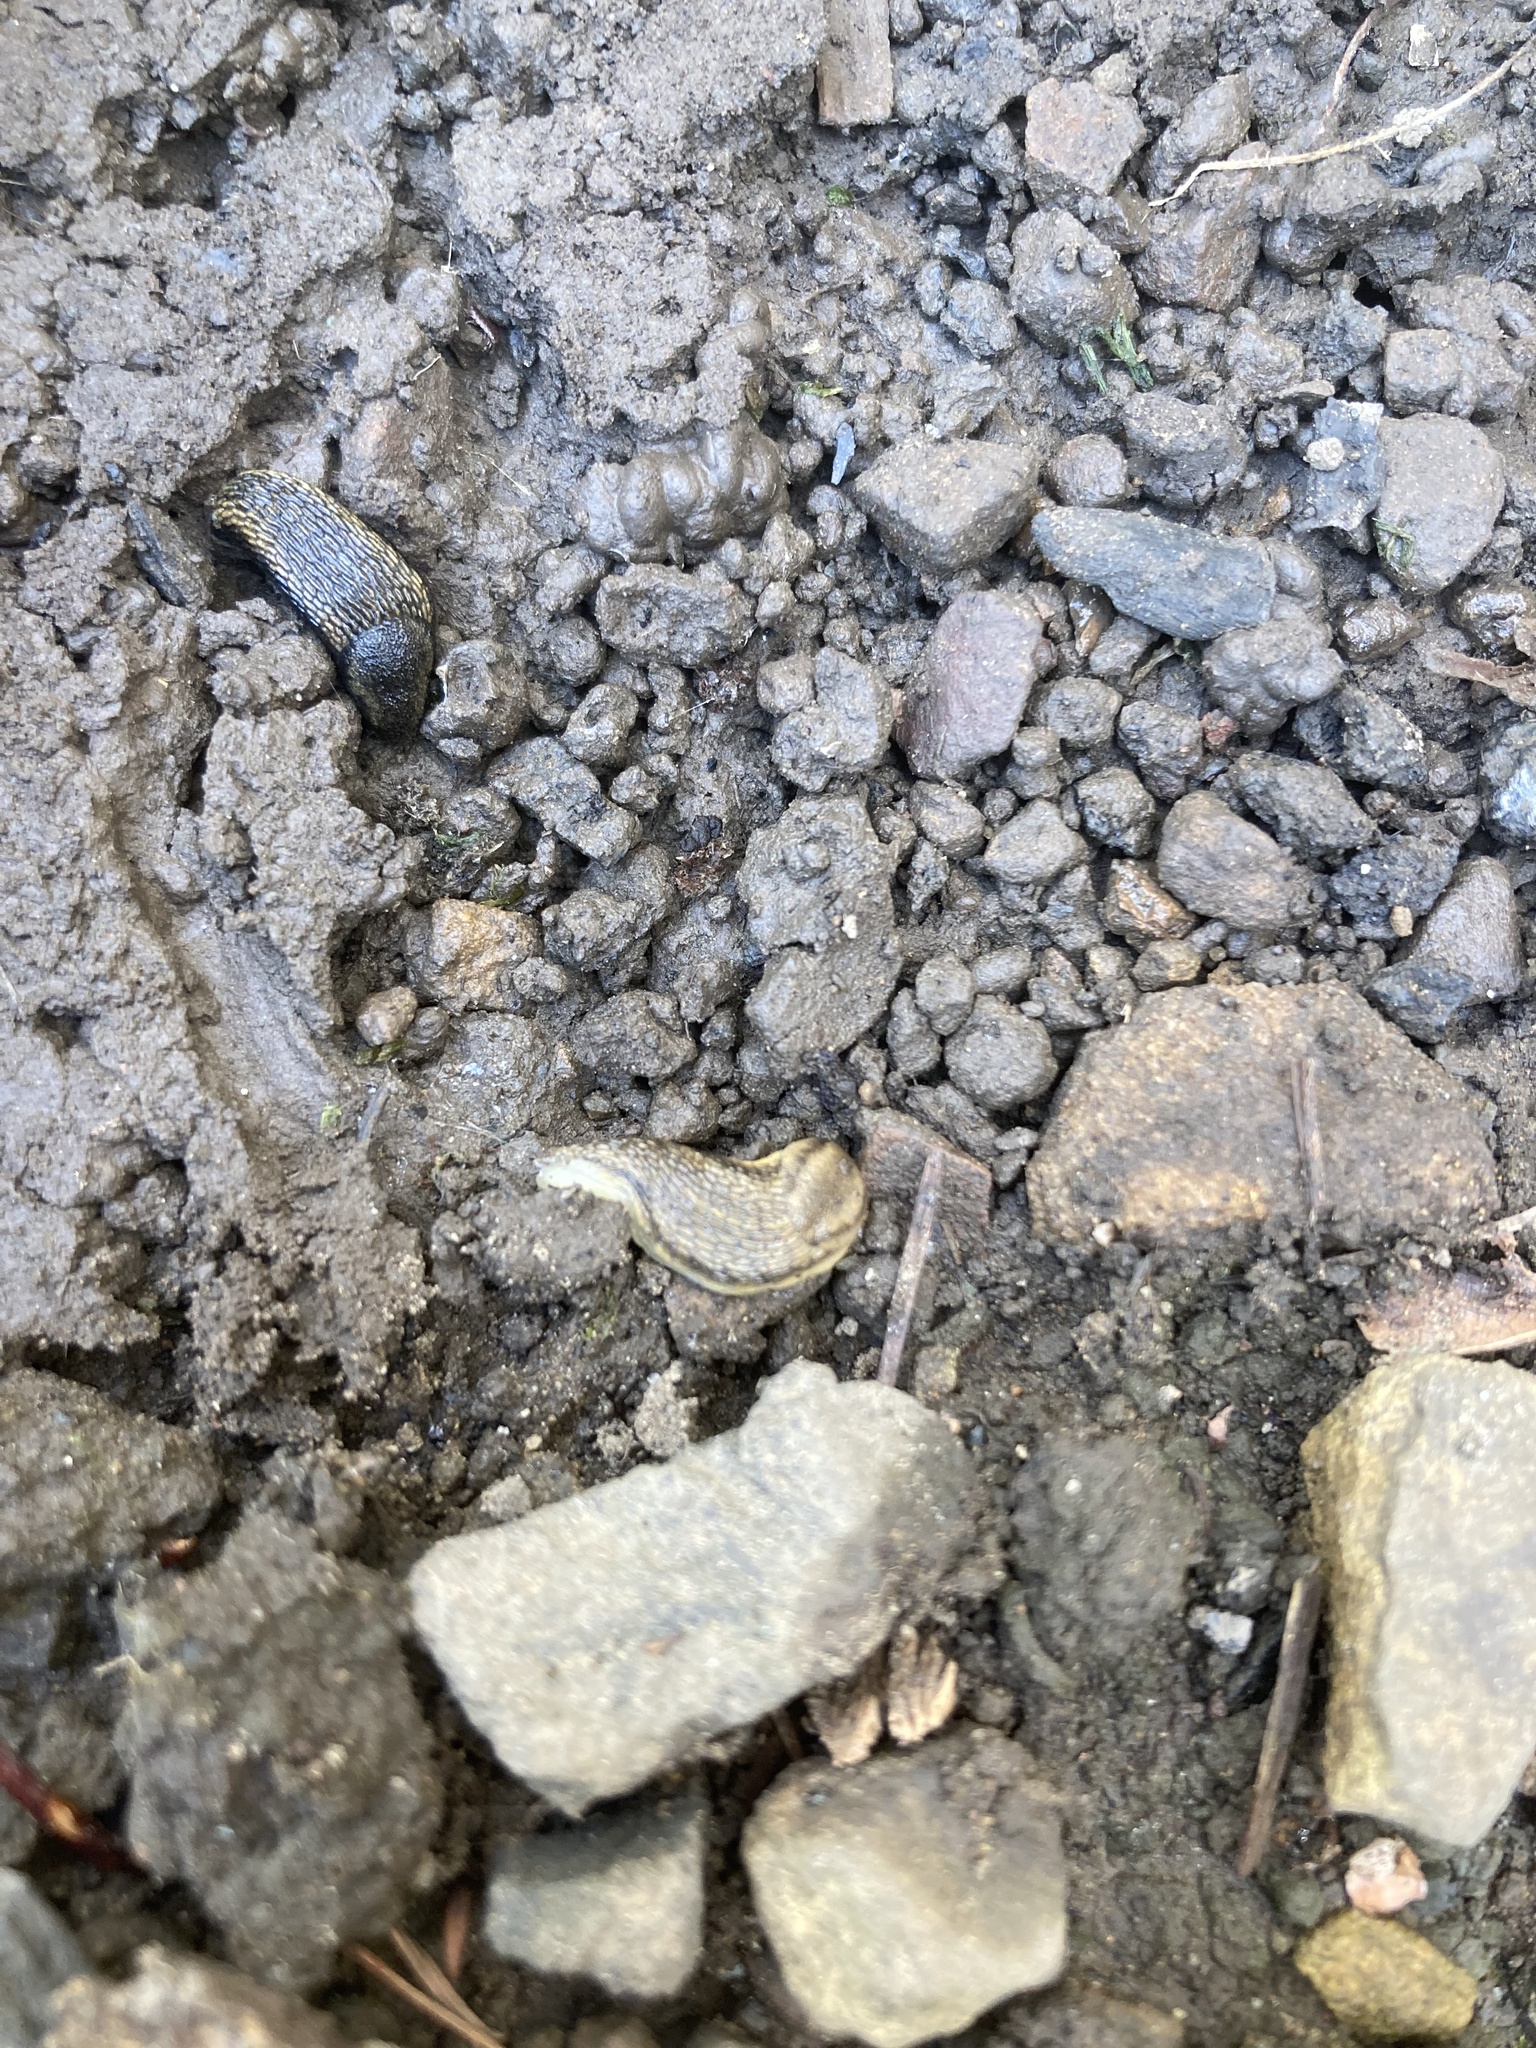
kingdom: Animalia
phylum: Mollusca
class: Gastropoda
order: Stylommatophora
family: Arionidae
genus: Arion
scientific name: Arion fasciatus
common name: Orange-banded arion
